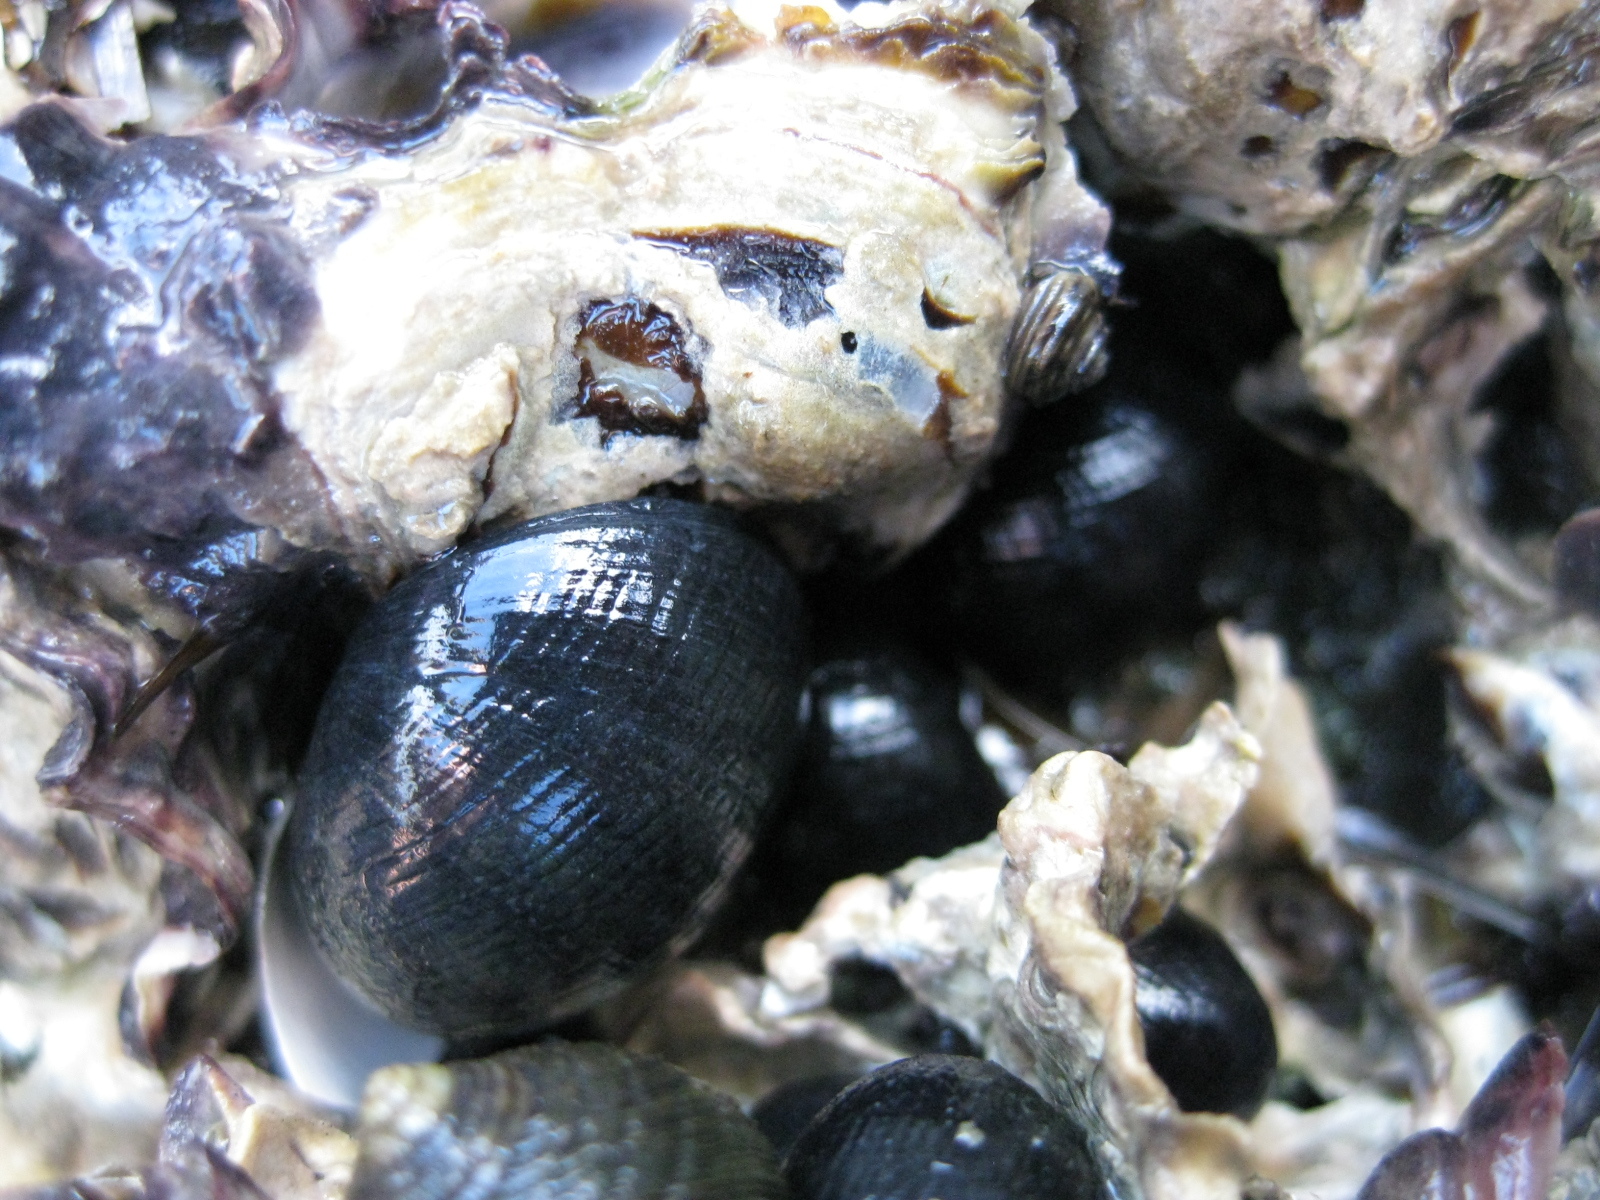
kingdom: Animalia
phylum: Mollusca
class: Gastropoda
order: Cycloneritida
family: Neritidae
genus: Nerita
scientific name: Nerita melanotragus
